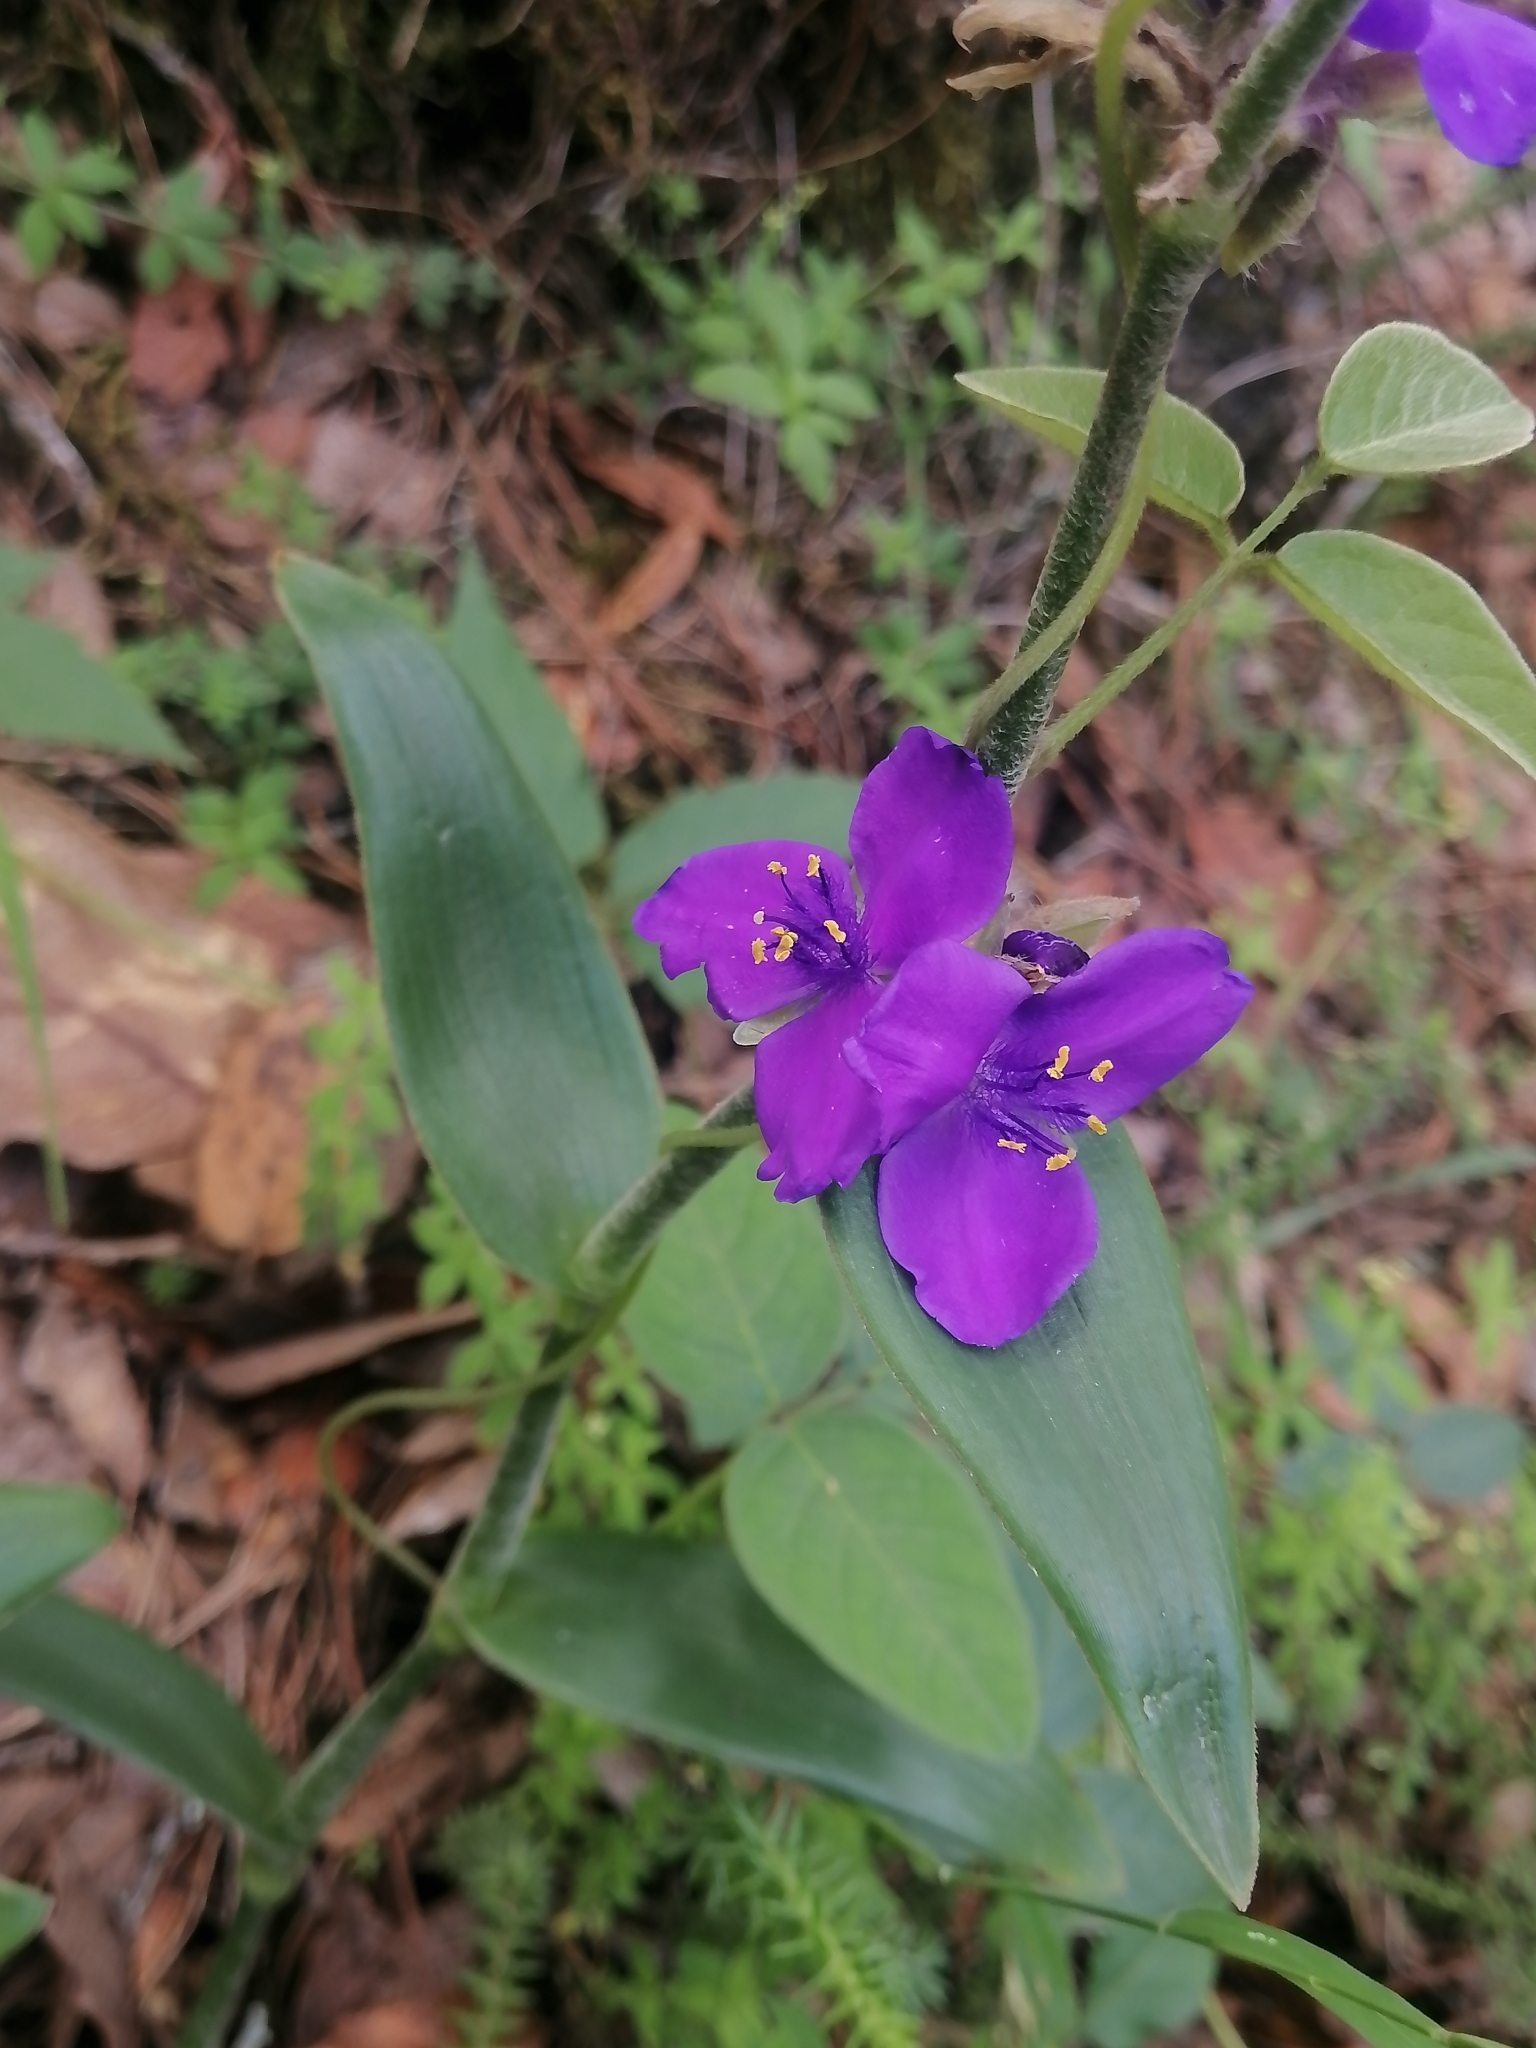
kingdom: Plantae
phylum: Tracheophyta
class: Liliopsida
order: Commelinales
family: Commelinaceae
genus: Tradescantia
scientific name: Tradescantia crassifolia
